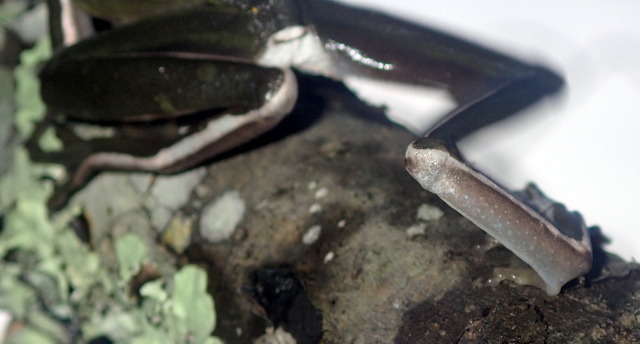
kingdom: Animalia
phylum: Chordata
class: Amphibia
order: Anura
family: Hylidae
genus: Dryophytes
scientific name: Dryophytes cinereus
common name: Green treefrog
